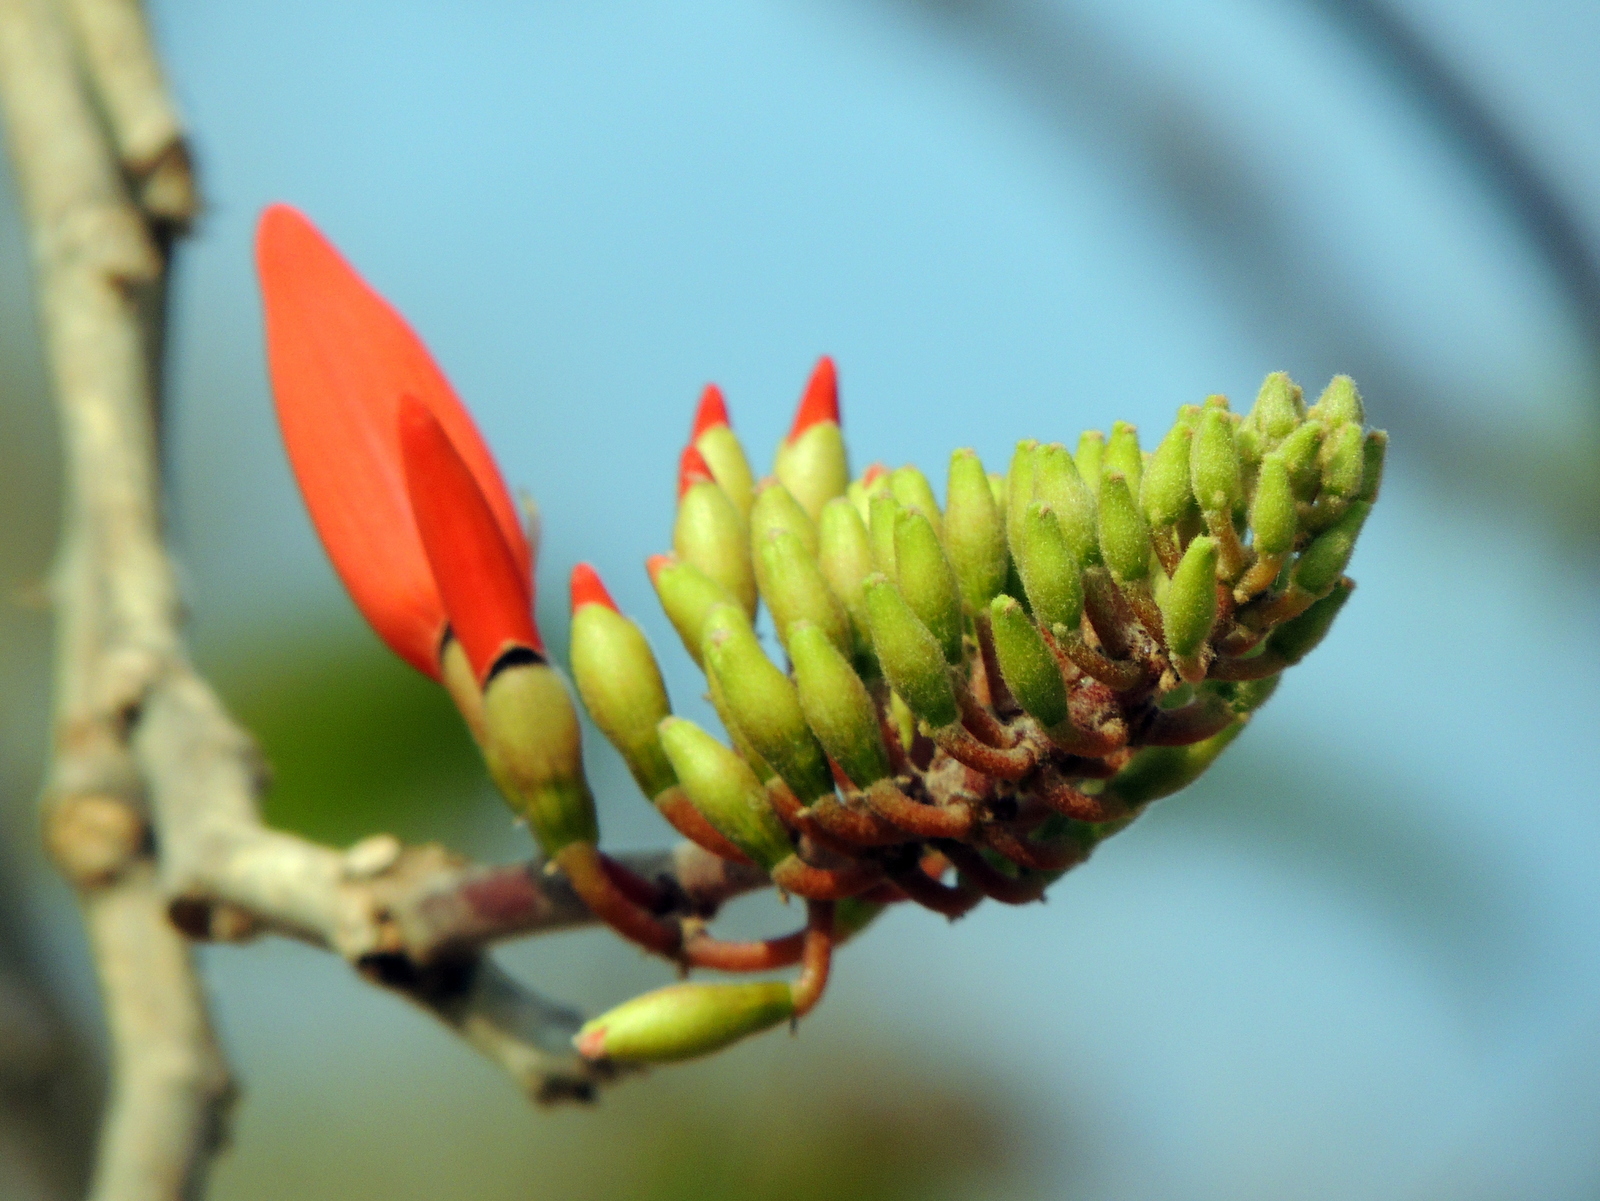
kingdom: Plantae
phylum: Tracheophyta
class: Magnoliopsida
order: Fabales
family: Fabaceae
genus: Erythrina
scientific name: Erythrina variegata
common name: Indian coral tree
